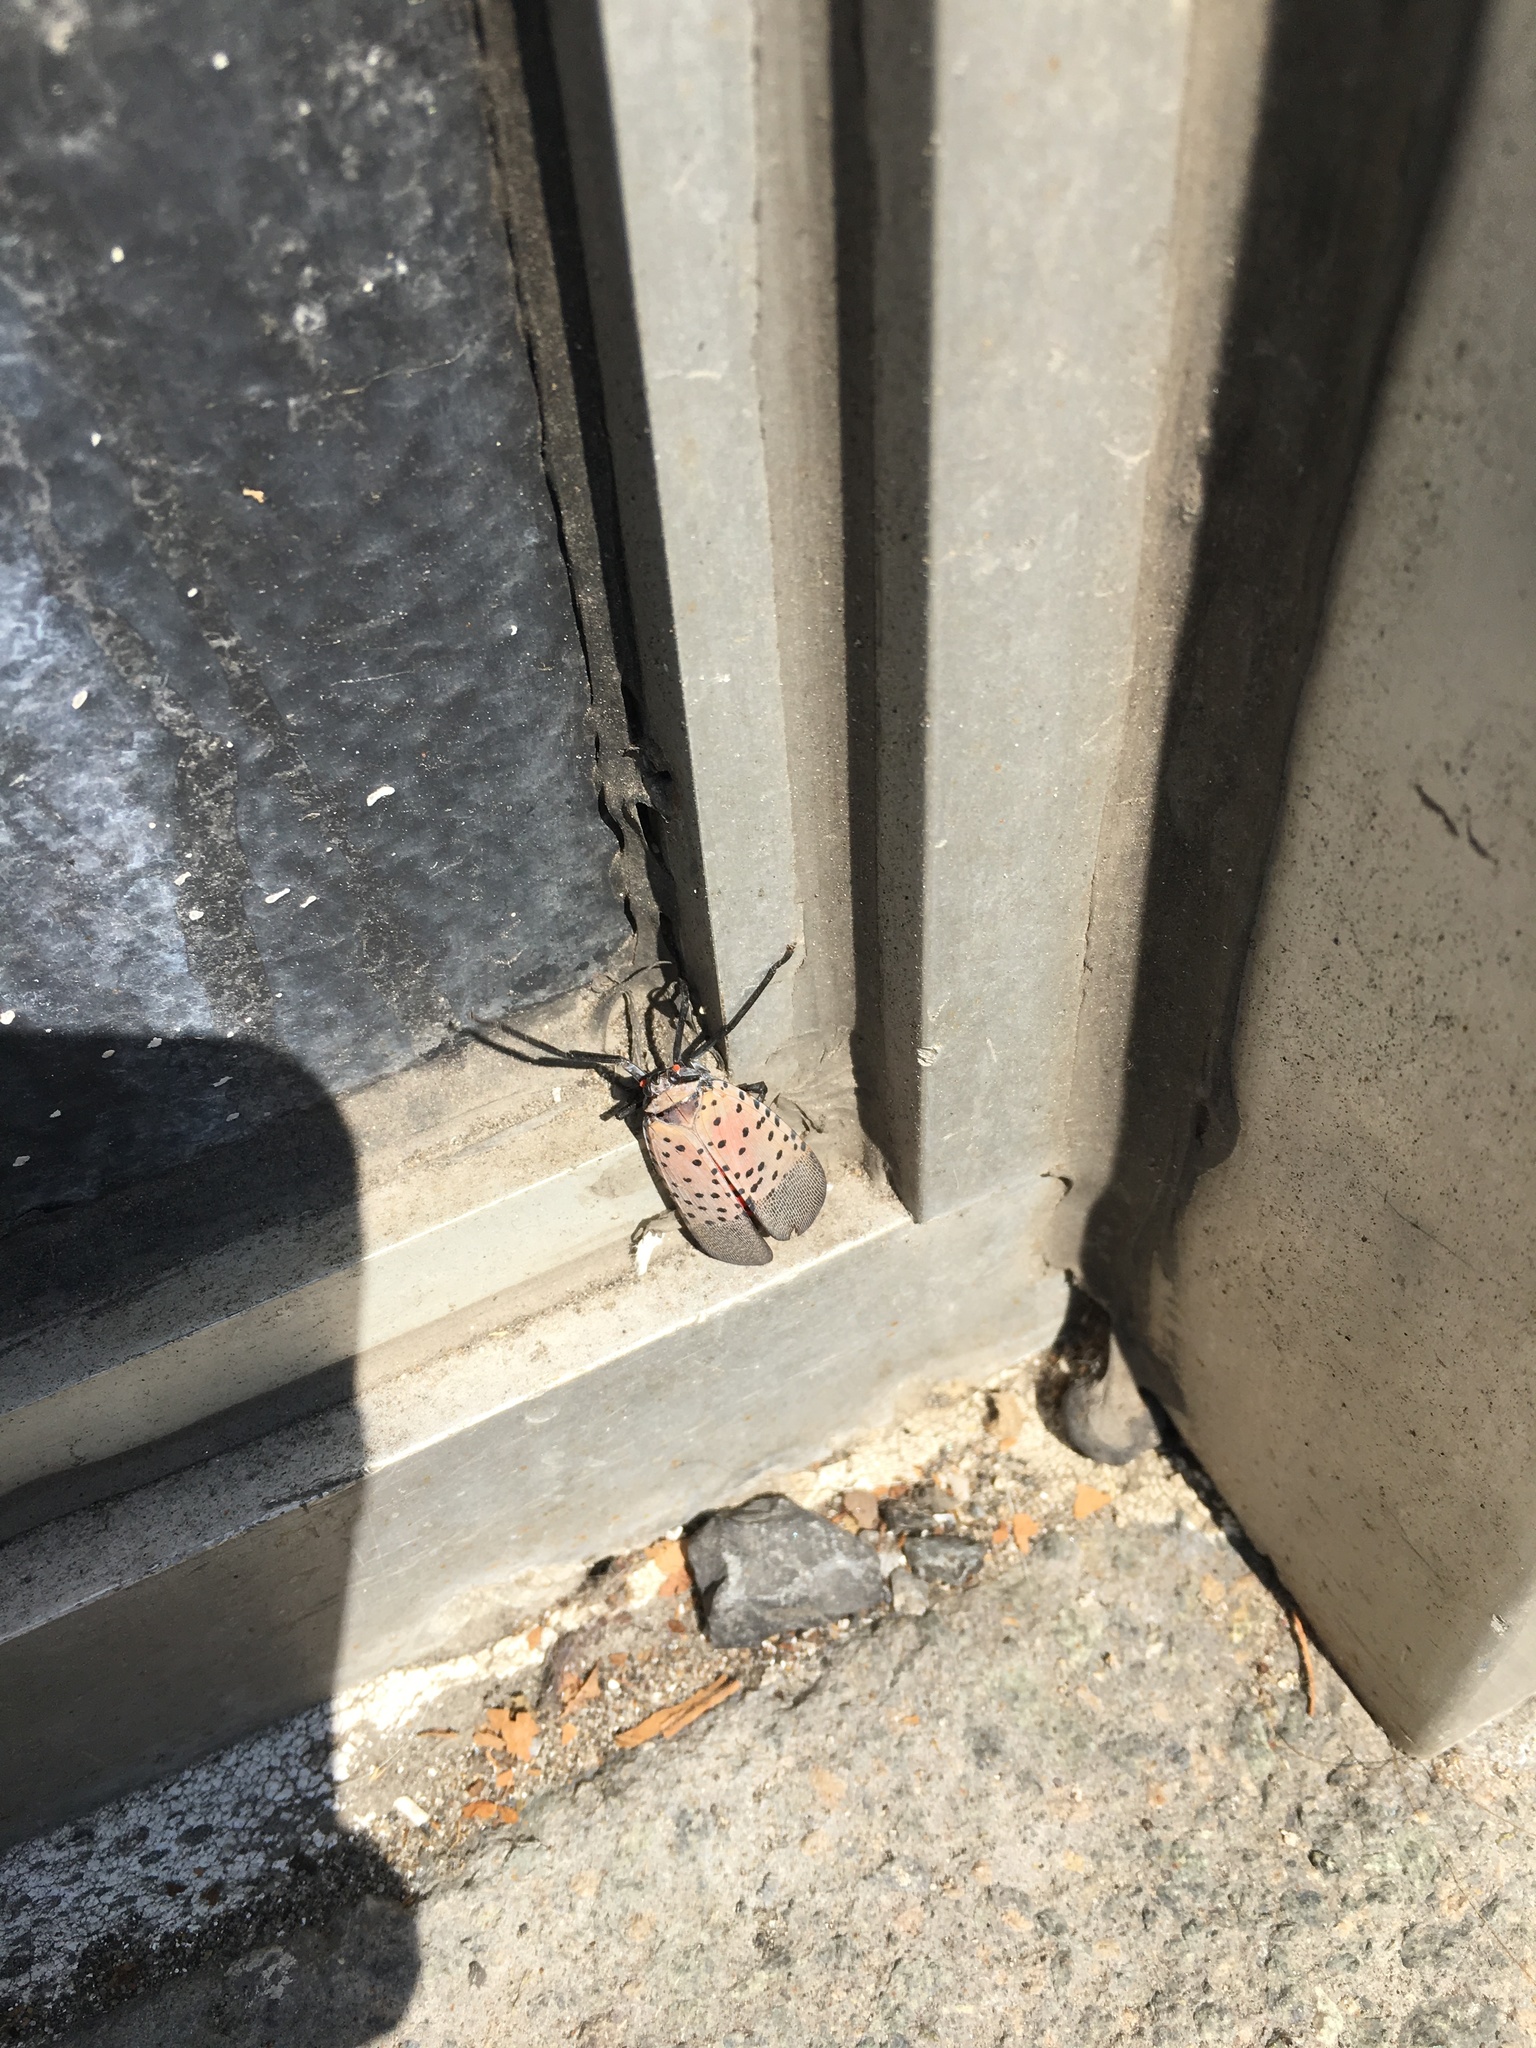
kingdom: Animalia
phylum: Arthropoda
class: Insecta
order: Hemiptera
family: Fulgoridae
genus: Lycorma
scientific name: Lycorma delicatula
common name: Spotted lanternfly
